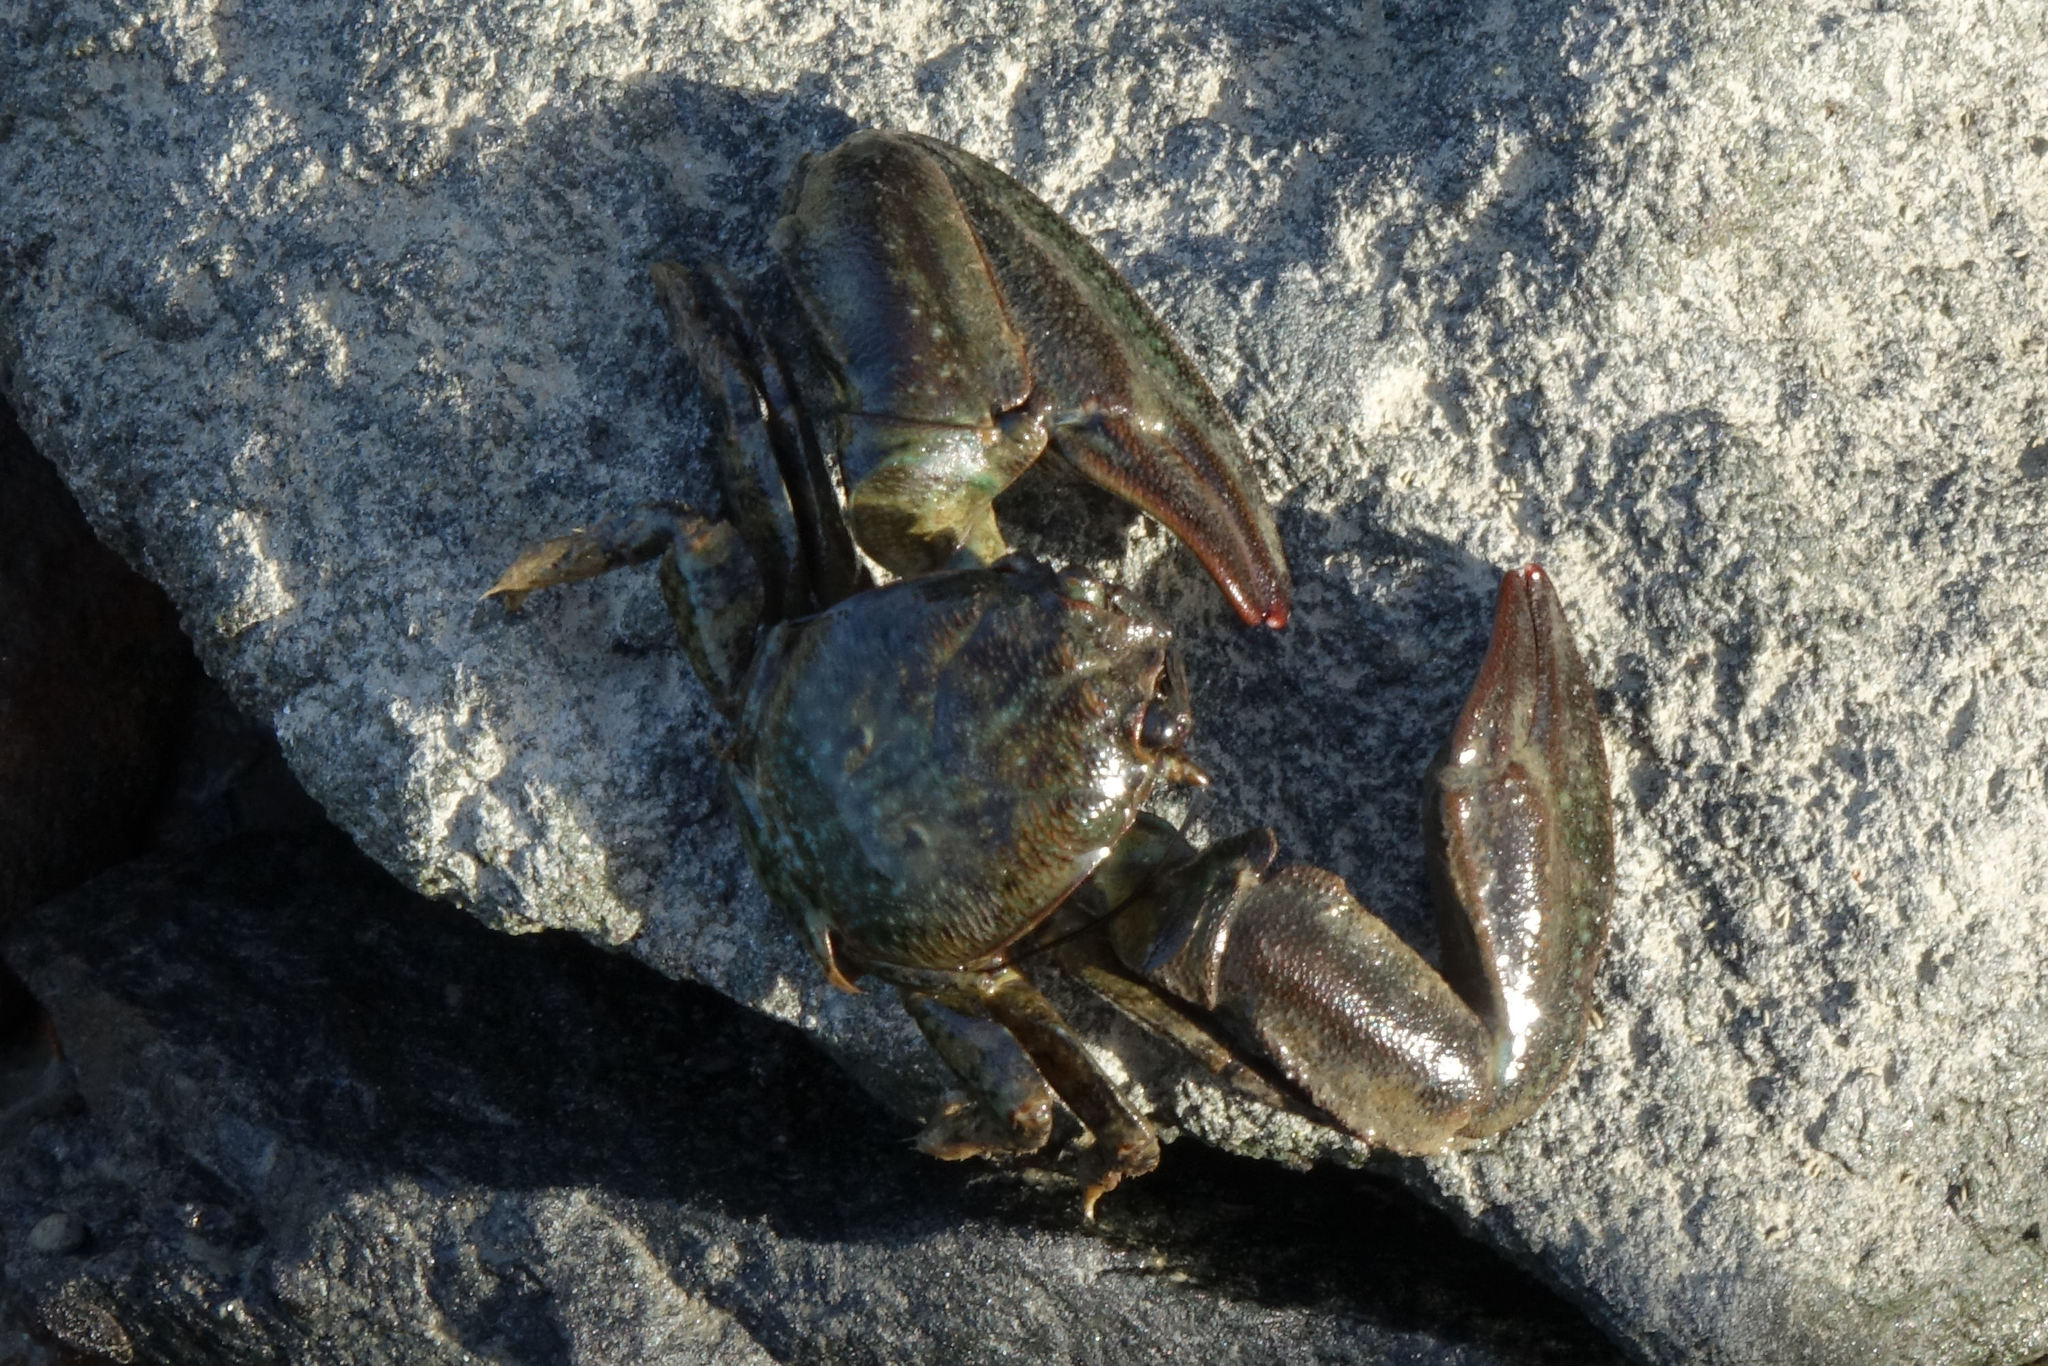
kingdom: Animalia
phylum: Arthropoda
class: Malacostraca
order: Decapoda
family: Porcellanidae
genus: Petrolisthes
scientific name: Petrolisthes elongatus
